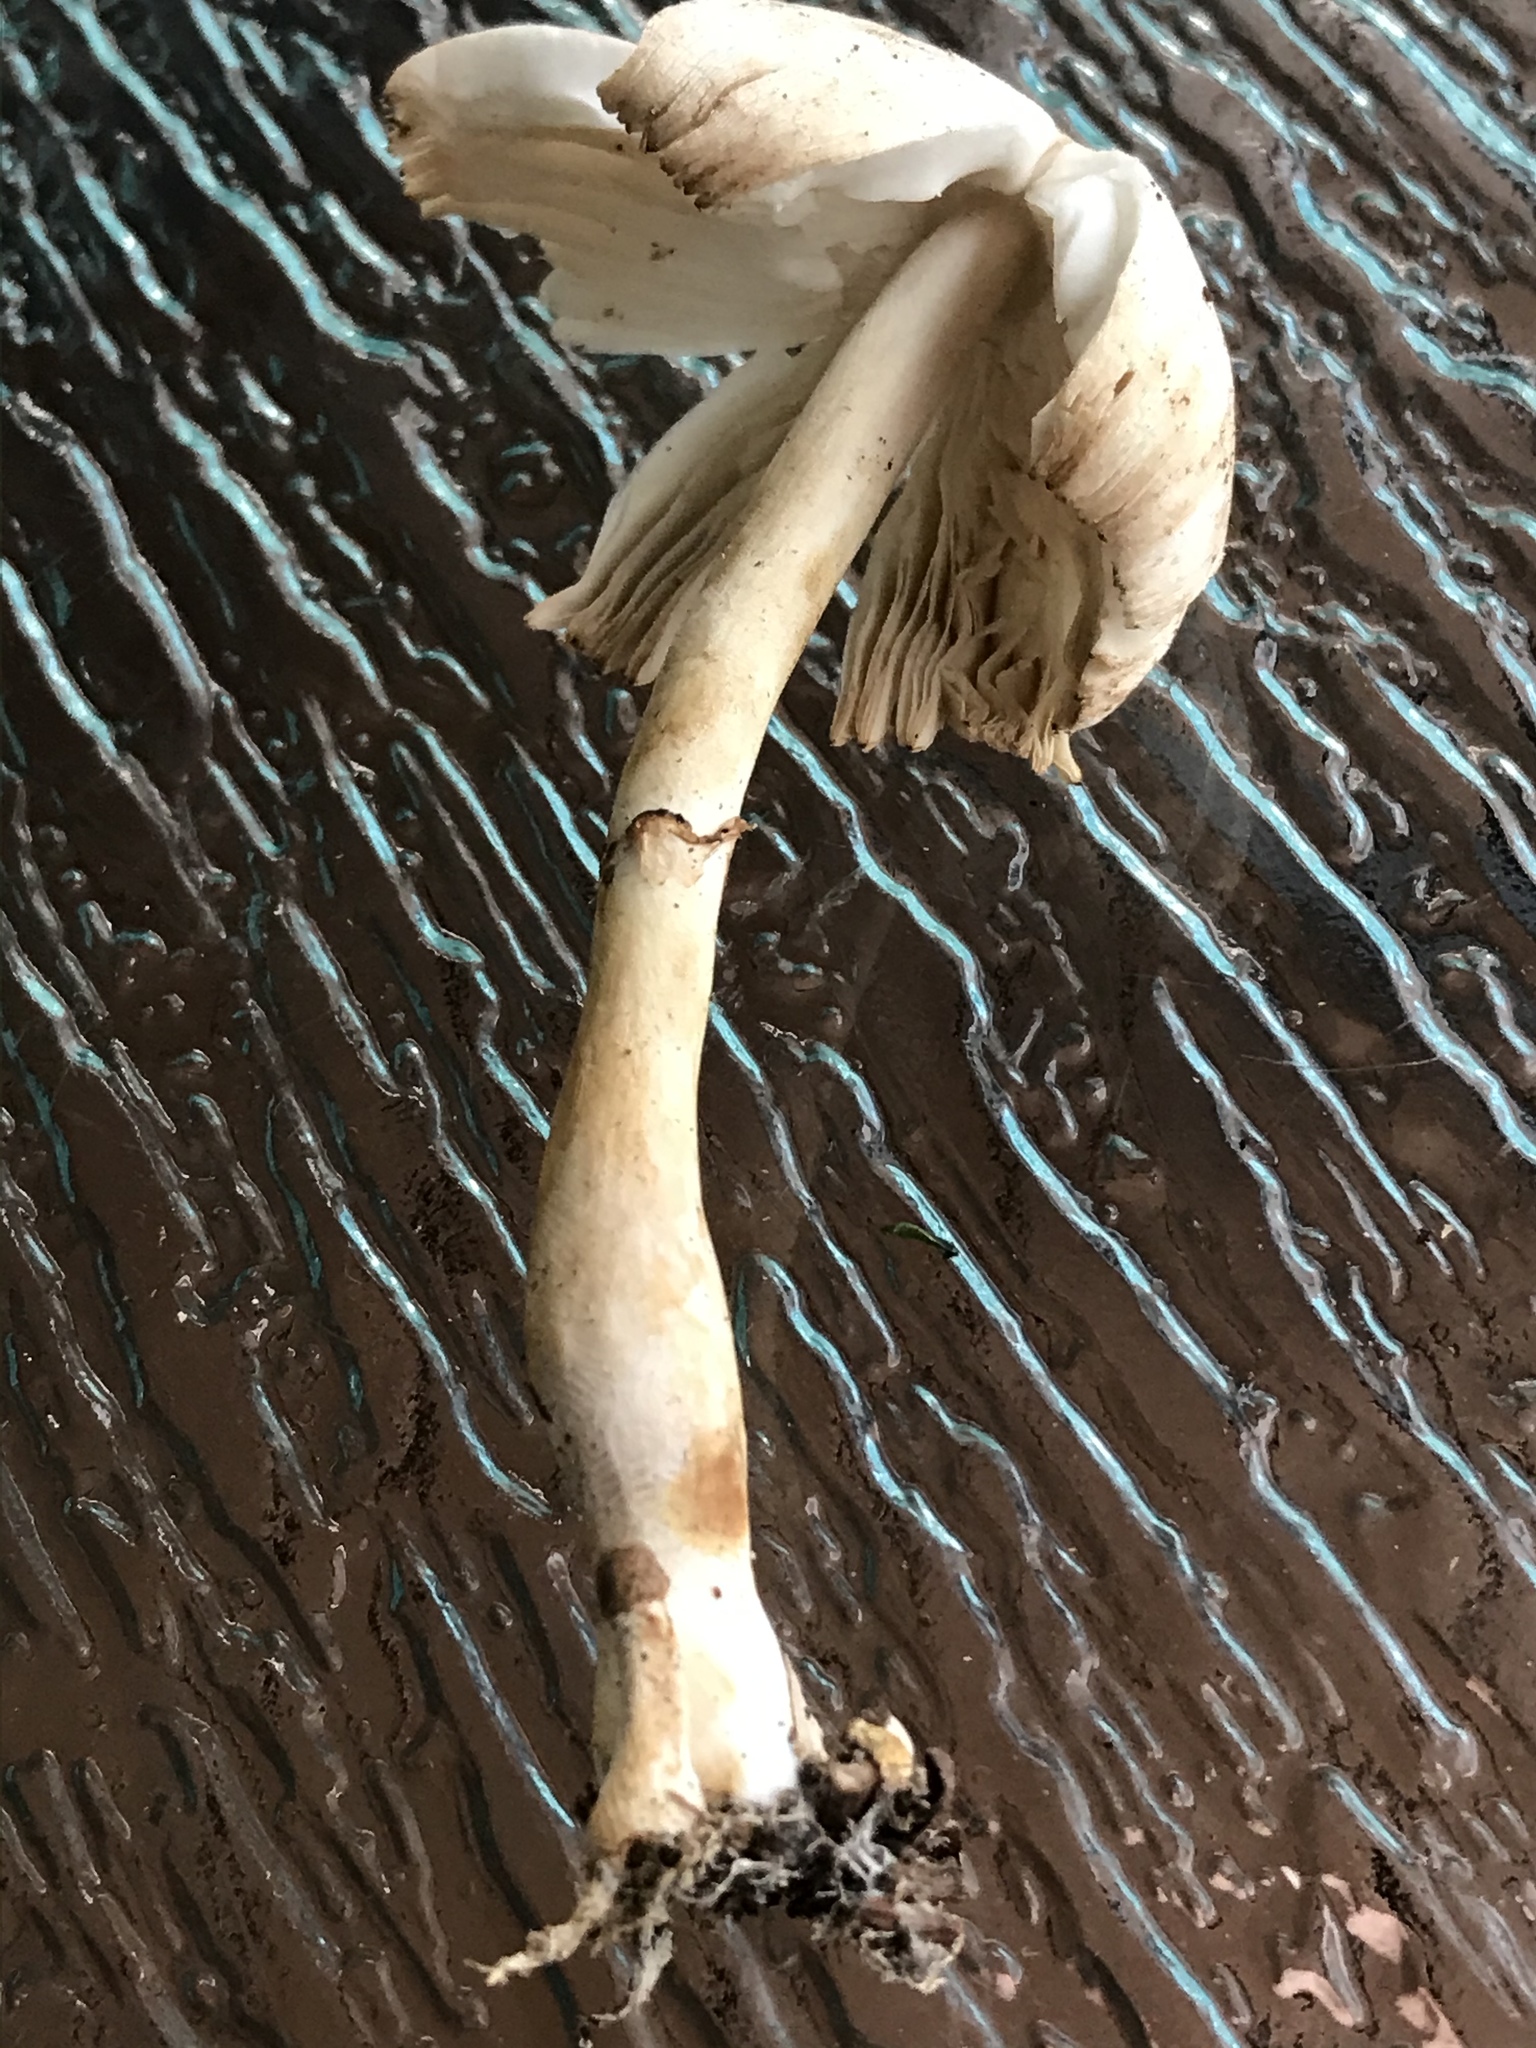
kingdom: Fungi
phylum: Basidiomycota
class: Agaricomycetes
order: Agaricales
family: Agaricaceae
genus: Leucocoprinus
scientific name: Leucocoprinus cepistipes
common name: Onion-stalk parasol
